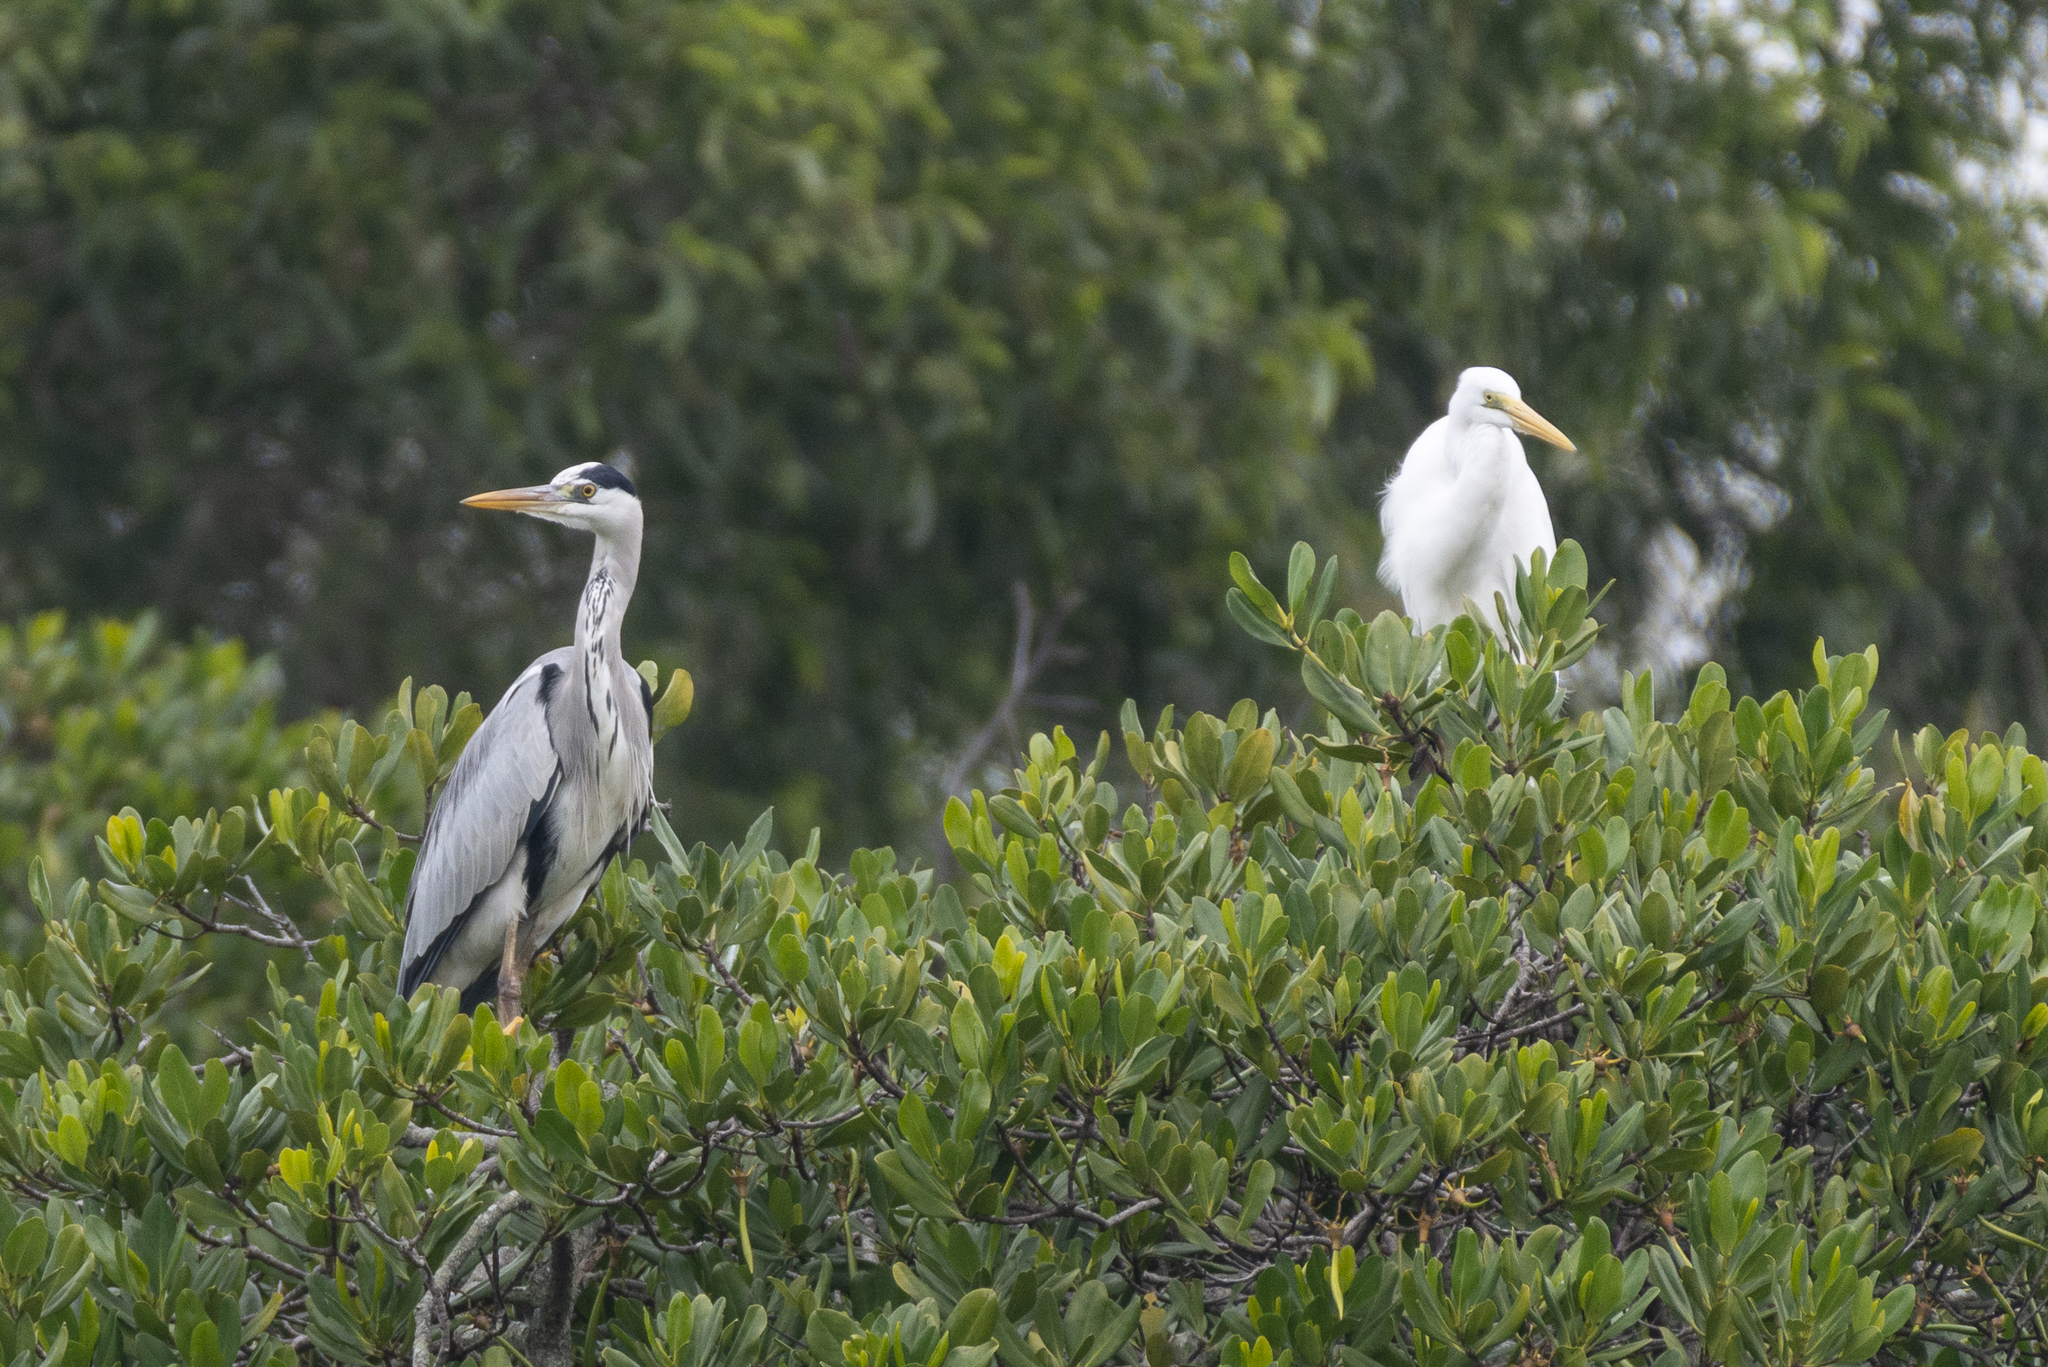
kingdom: Animalia
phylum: Chordata
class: Aves
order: Pelecaniformes
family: Ardeidae
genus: Ardea
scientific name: Ardea cinerea
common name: Grey heron
